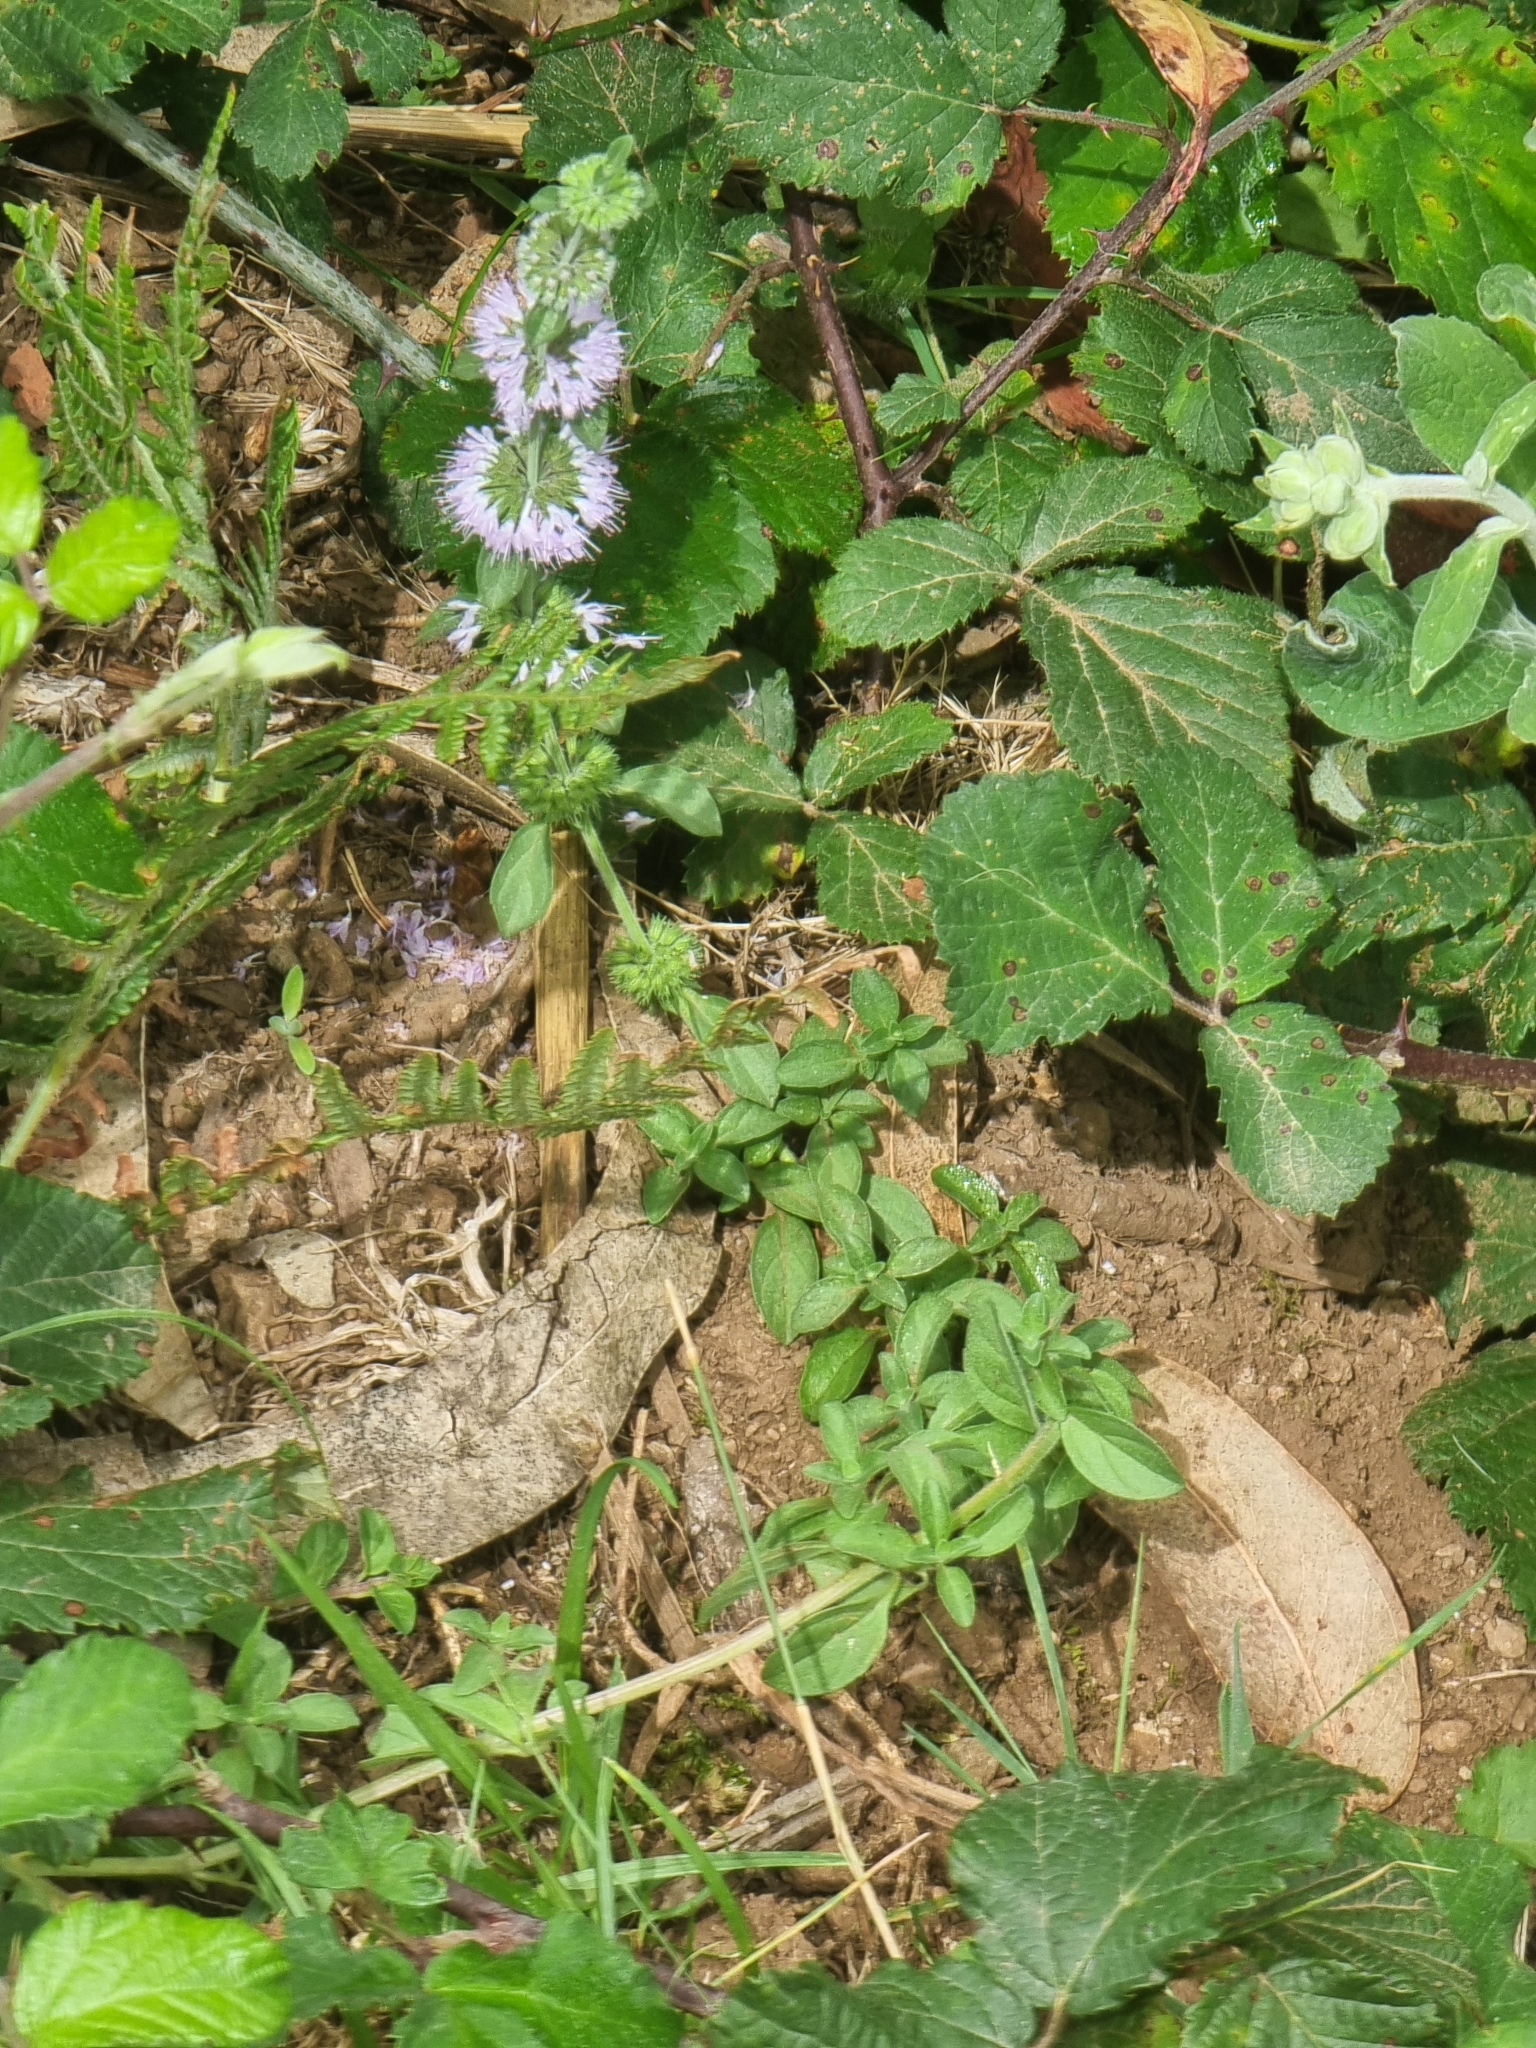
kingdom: Plantae
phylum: Tracheophyta
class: Magnoliopsida
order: Lamiales
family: Lamiaceae
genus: Mentha
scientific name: Mentha pulegium
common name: Pennyroyal
